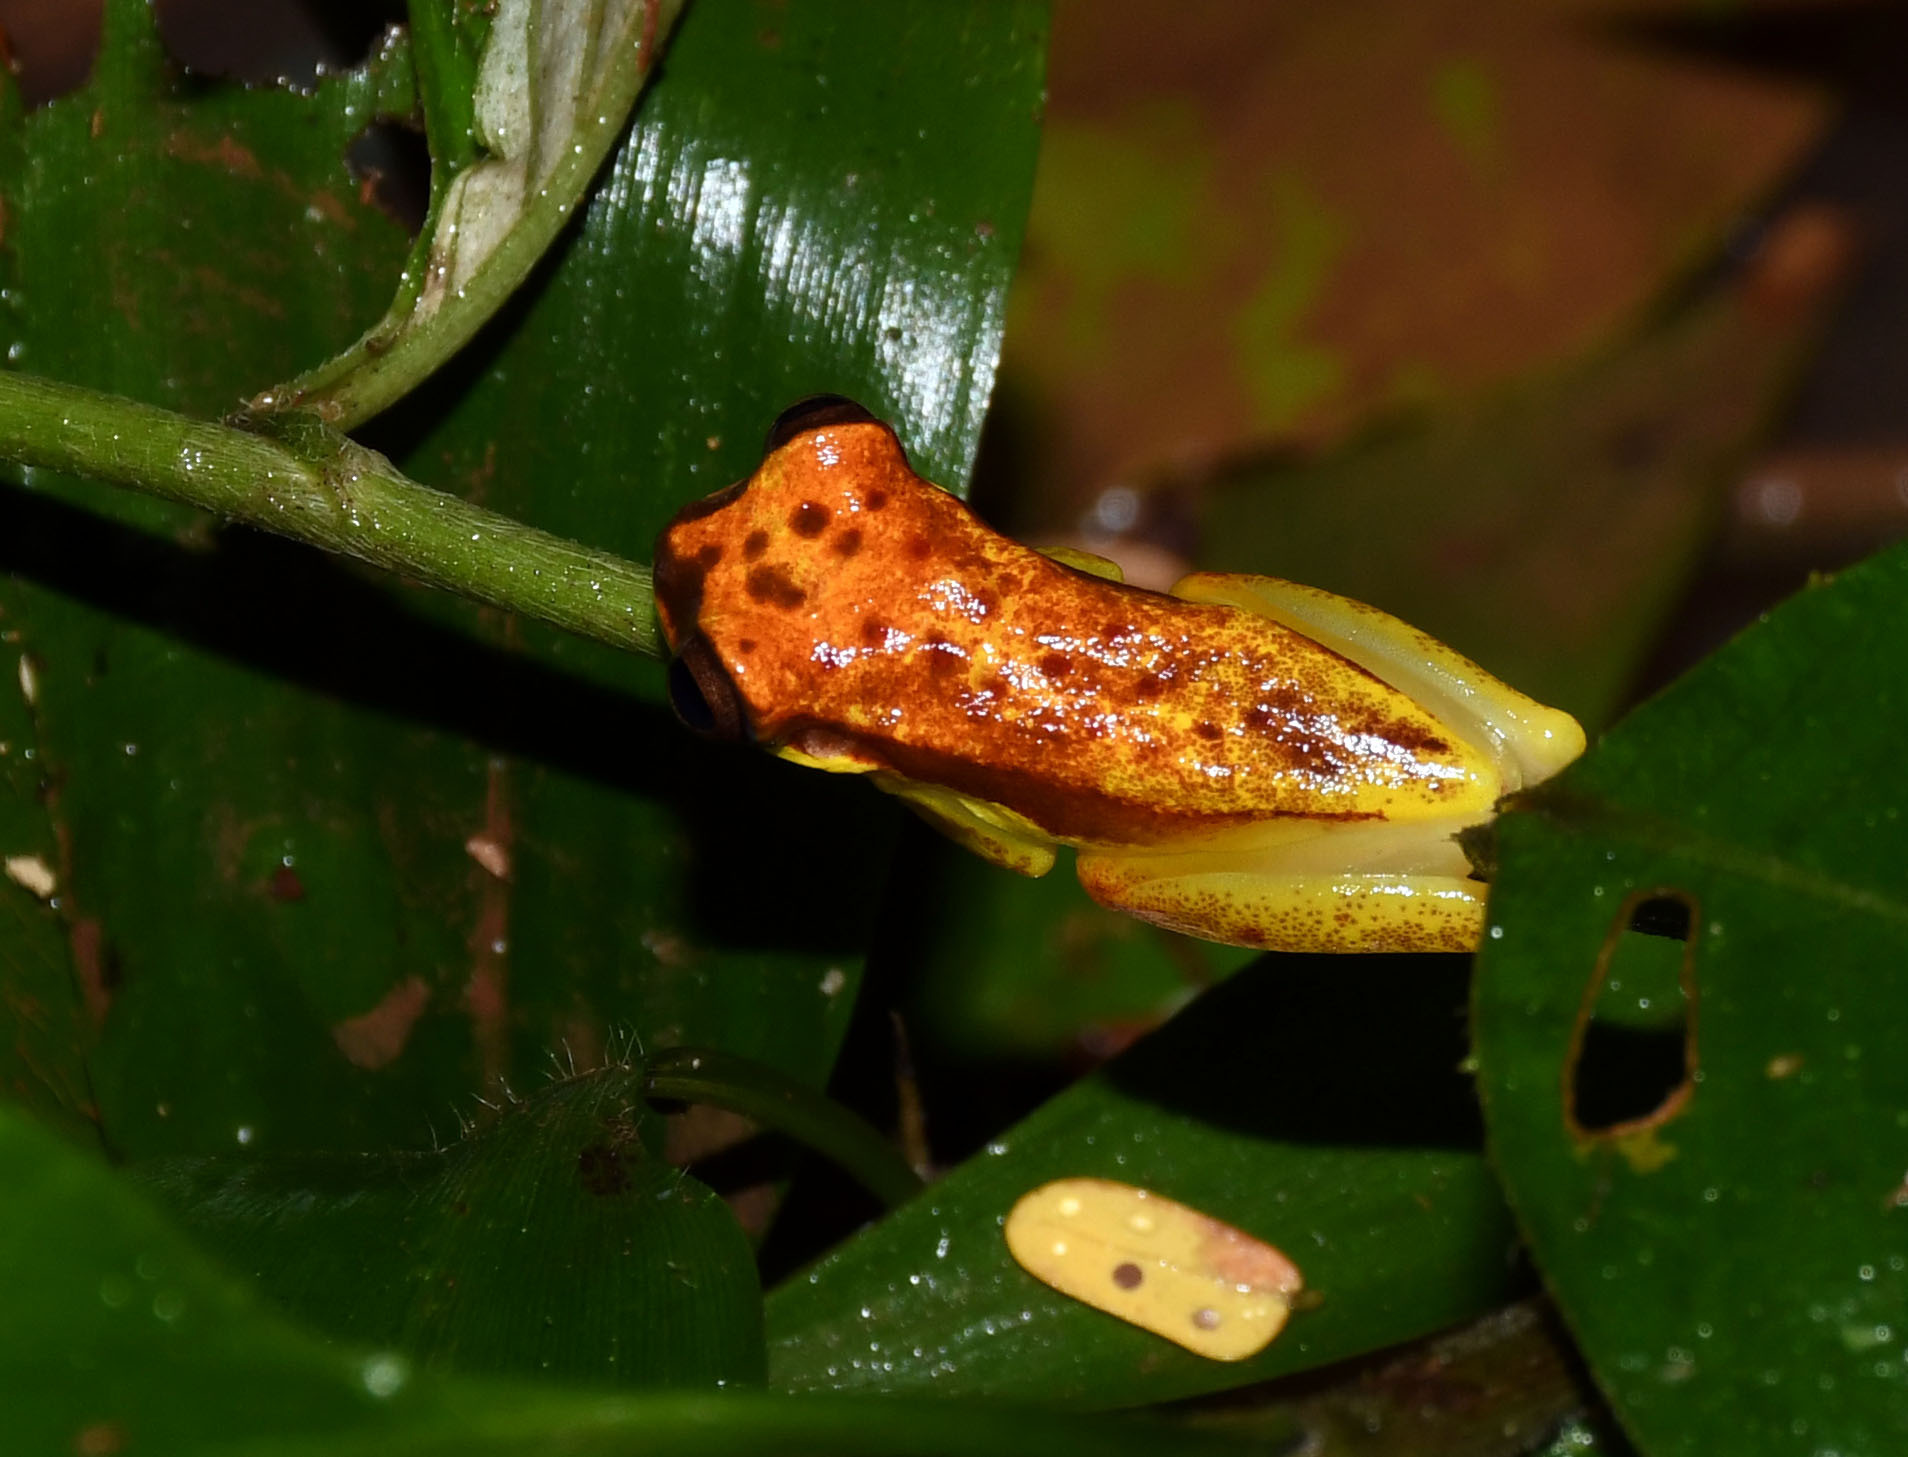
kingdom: Animalia
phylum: Chordata
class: Amphibia
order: Anura
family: Hylidae
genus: Dendropsophus
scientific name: Dendropsophus rhodopeplus
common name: Red-skirted treefrog
